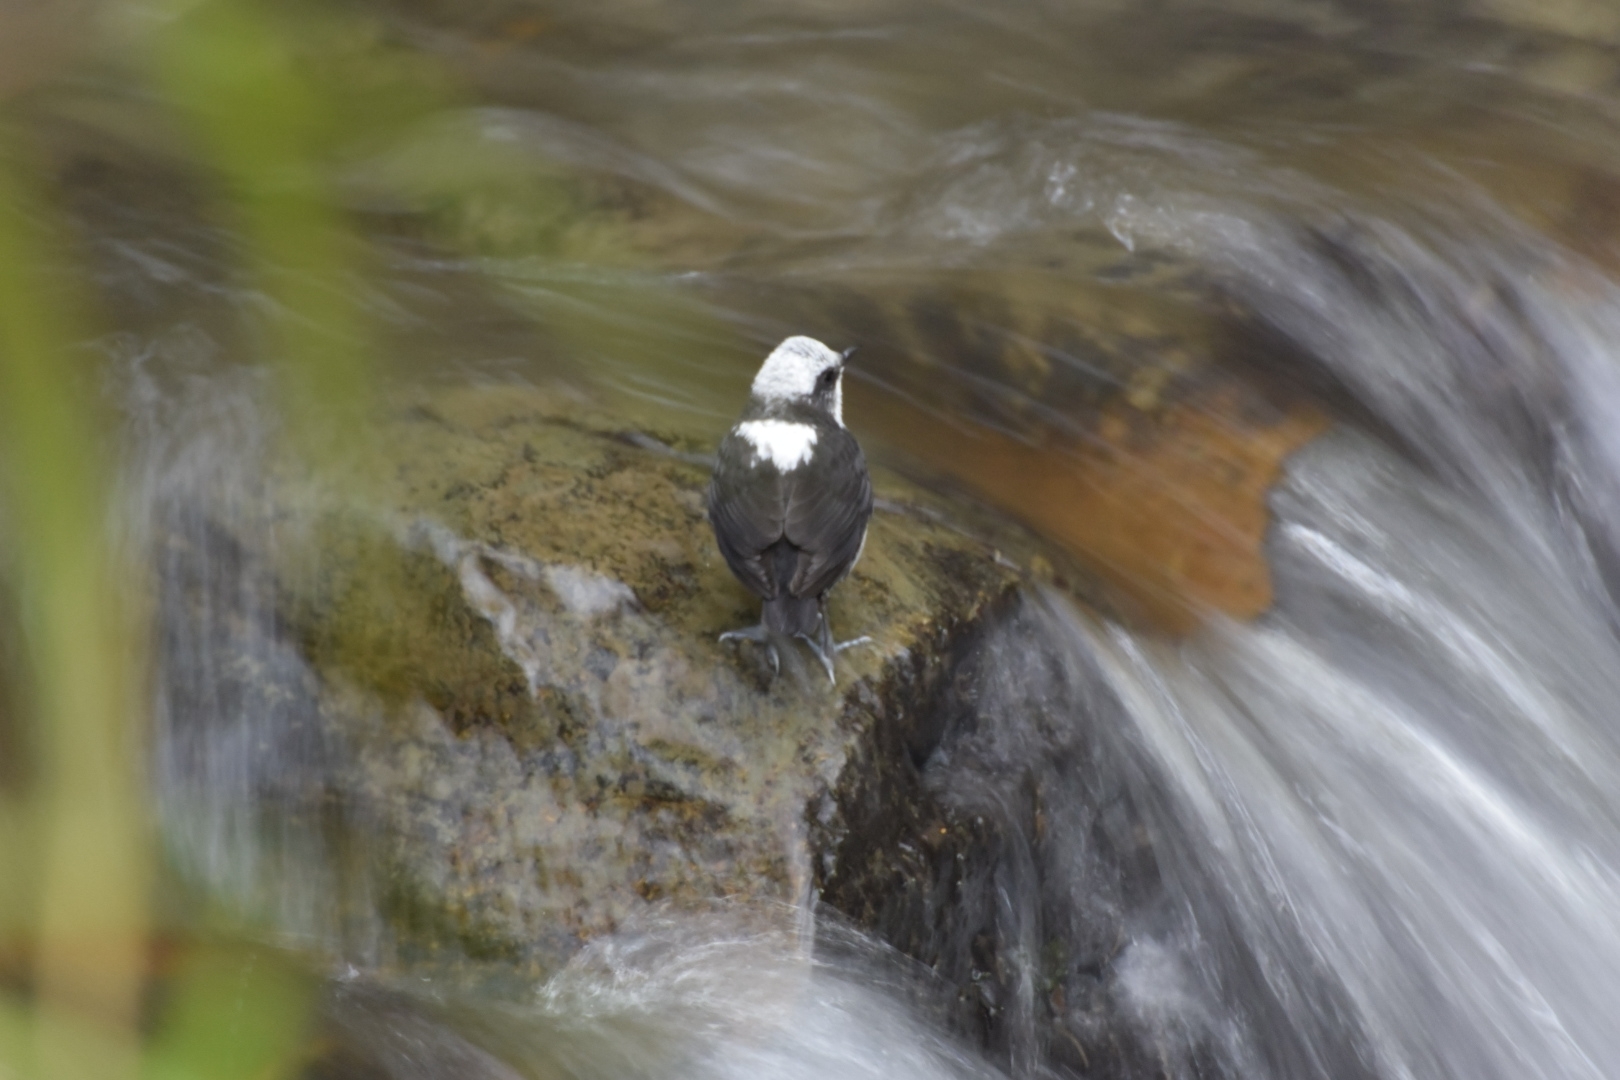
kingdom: Animalia
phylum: Chordata
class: Aves
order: Passeriformes
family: Cinclidae
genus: Cinclus
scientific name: Cinclus leucocephalus
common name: White-capped dipper
